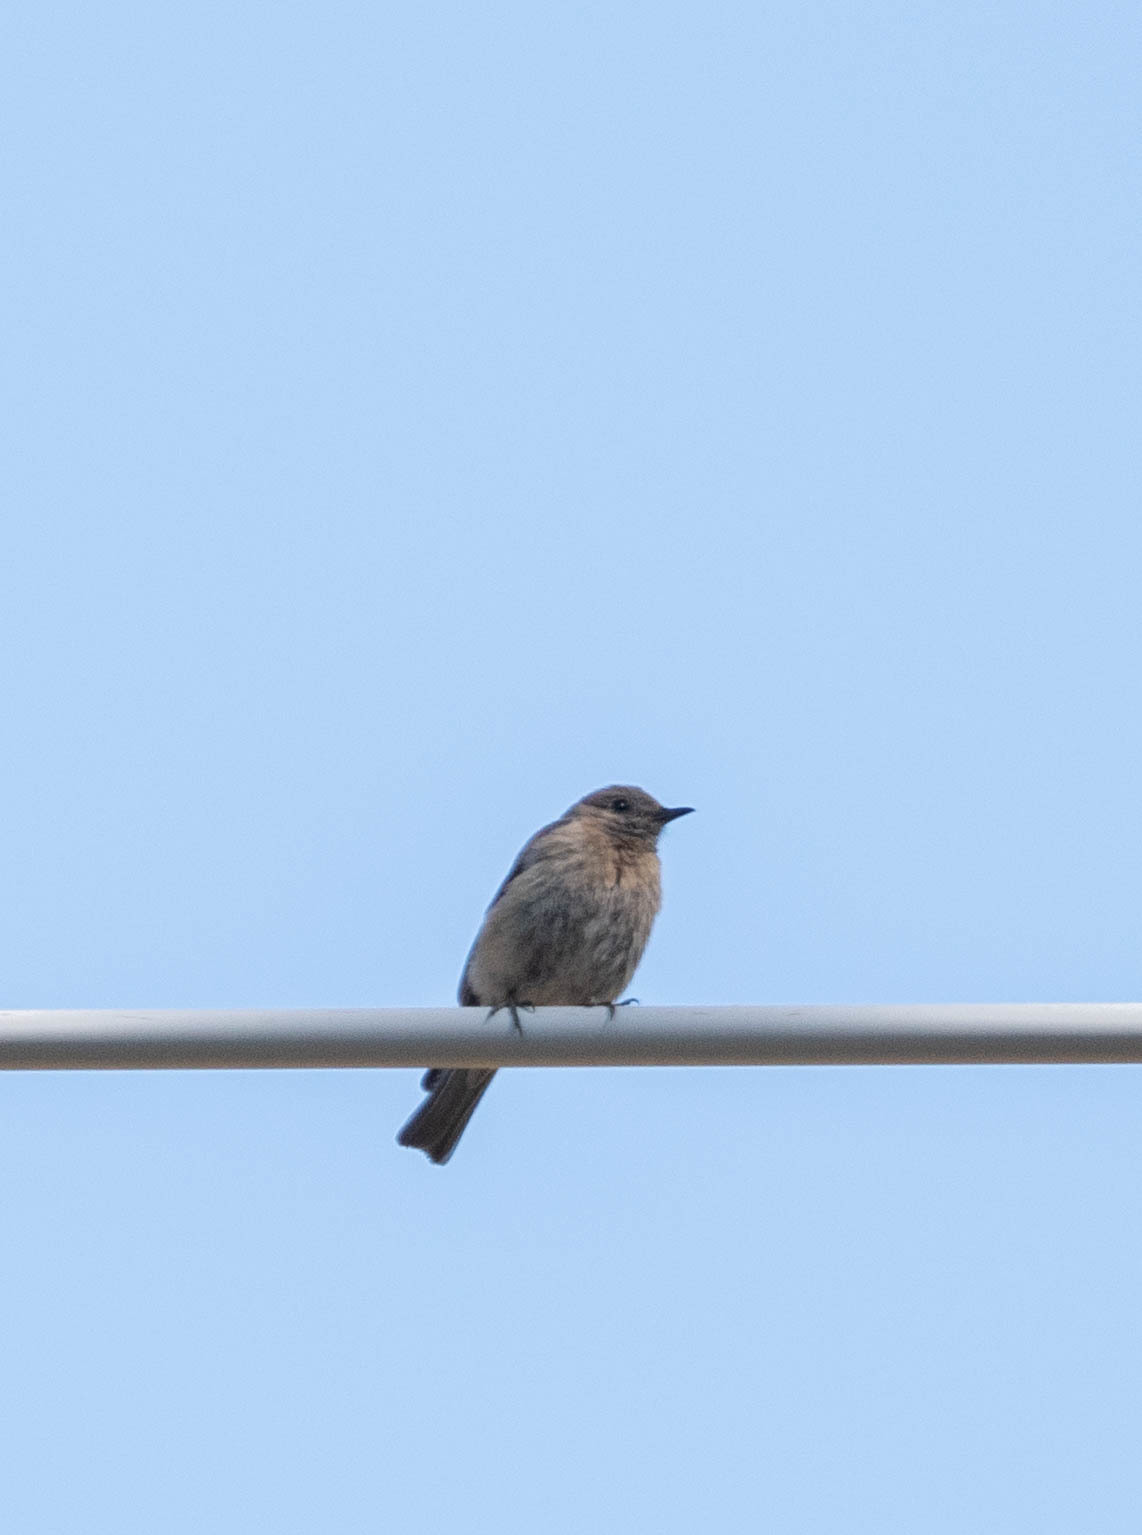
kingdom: Animalia
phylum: Chordata
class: Aves
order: Passeriformes
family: Turdidae
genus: Sialia
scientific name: Sialia mexicana
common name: Western bluebird
